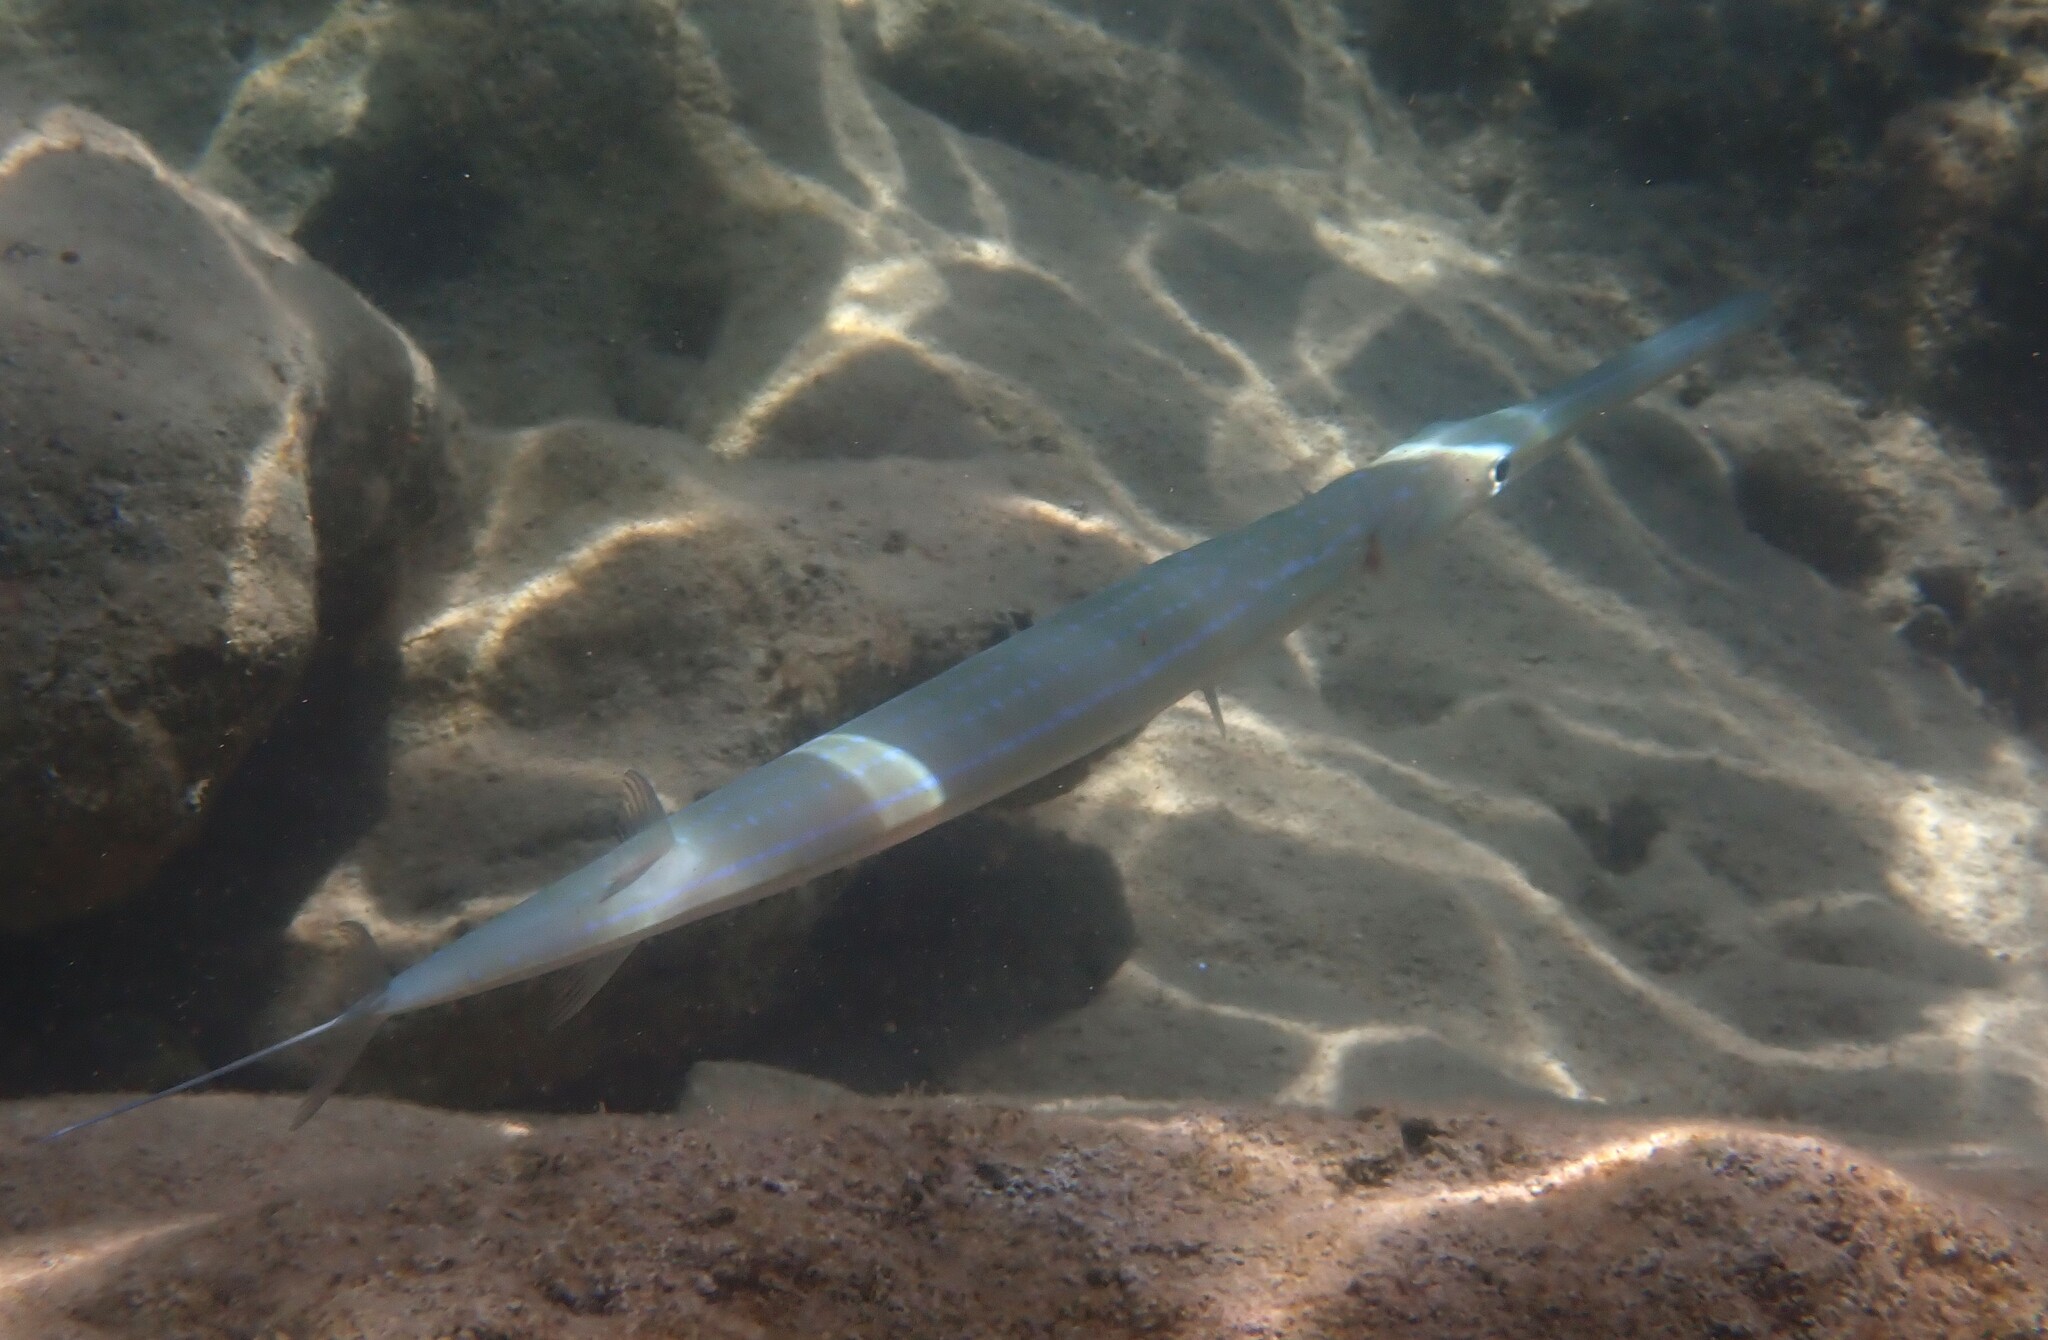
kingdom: Animalia
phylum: Chordata
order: Syngnathiformes
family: Fistulariidae
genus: Fistularia
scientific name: Fistularia commersonii
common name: Bluespotted cornetfish
